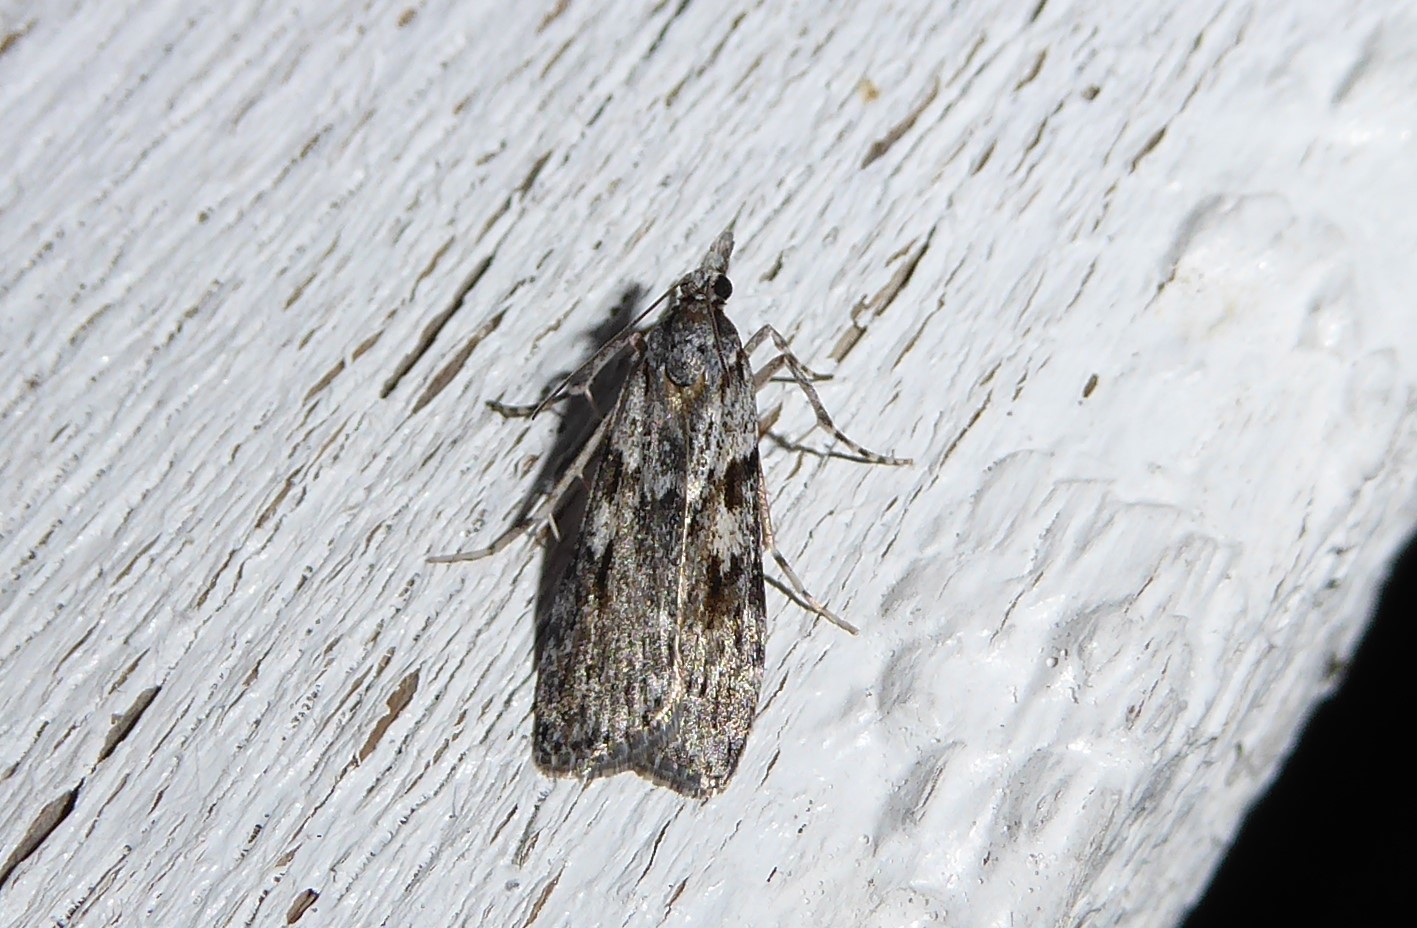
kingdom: Animalia
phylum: Arthropoda
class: Insecta
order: Lepidoptera
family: Crambidae
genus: Scoparia
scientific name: Scoparia halopis
